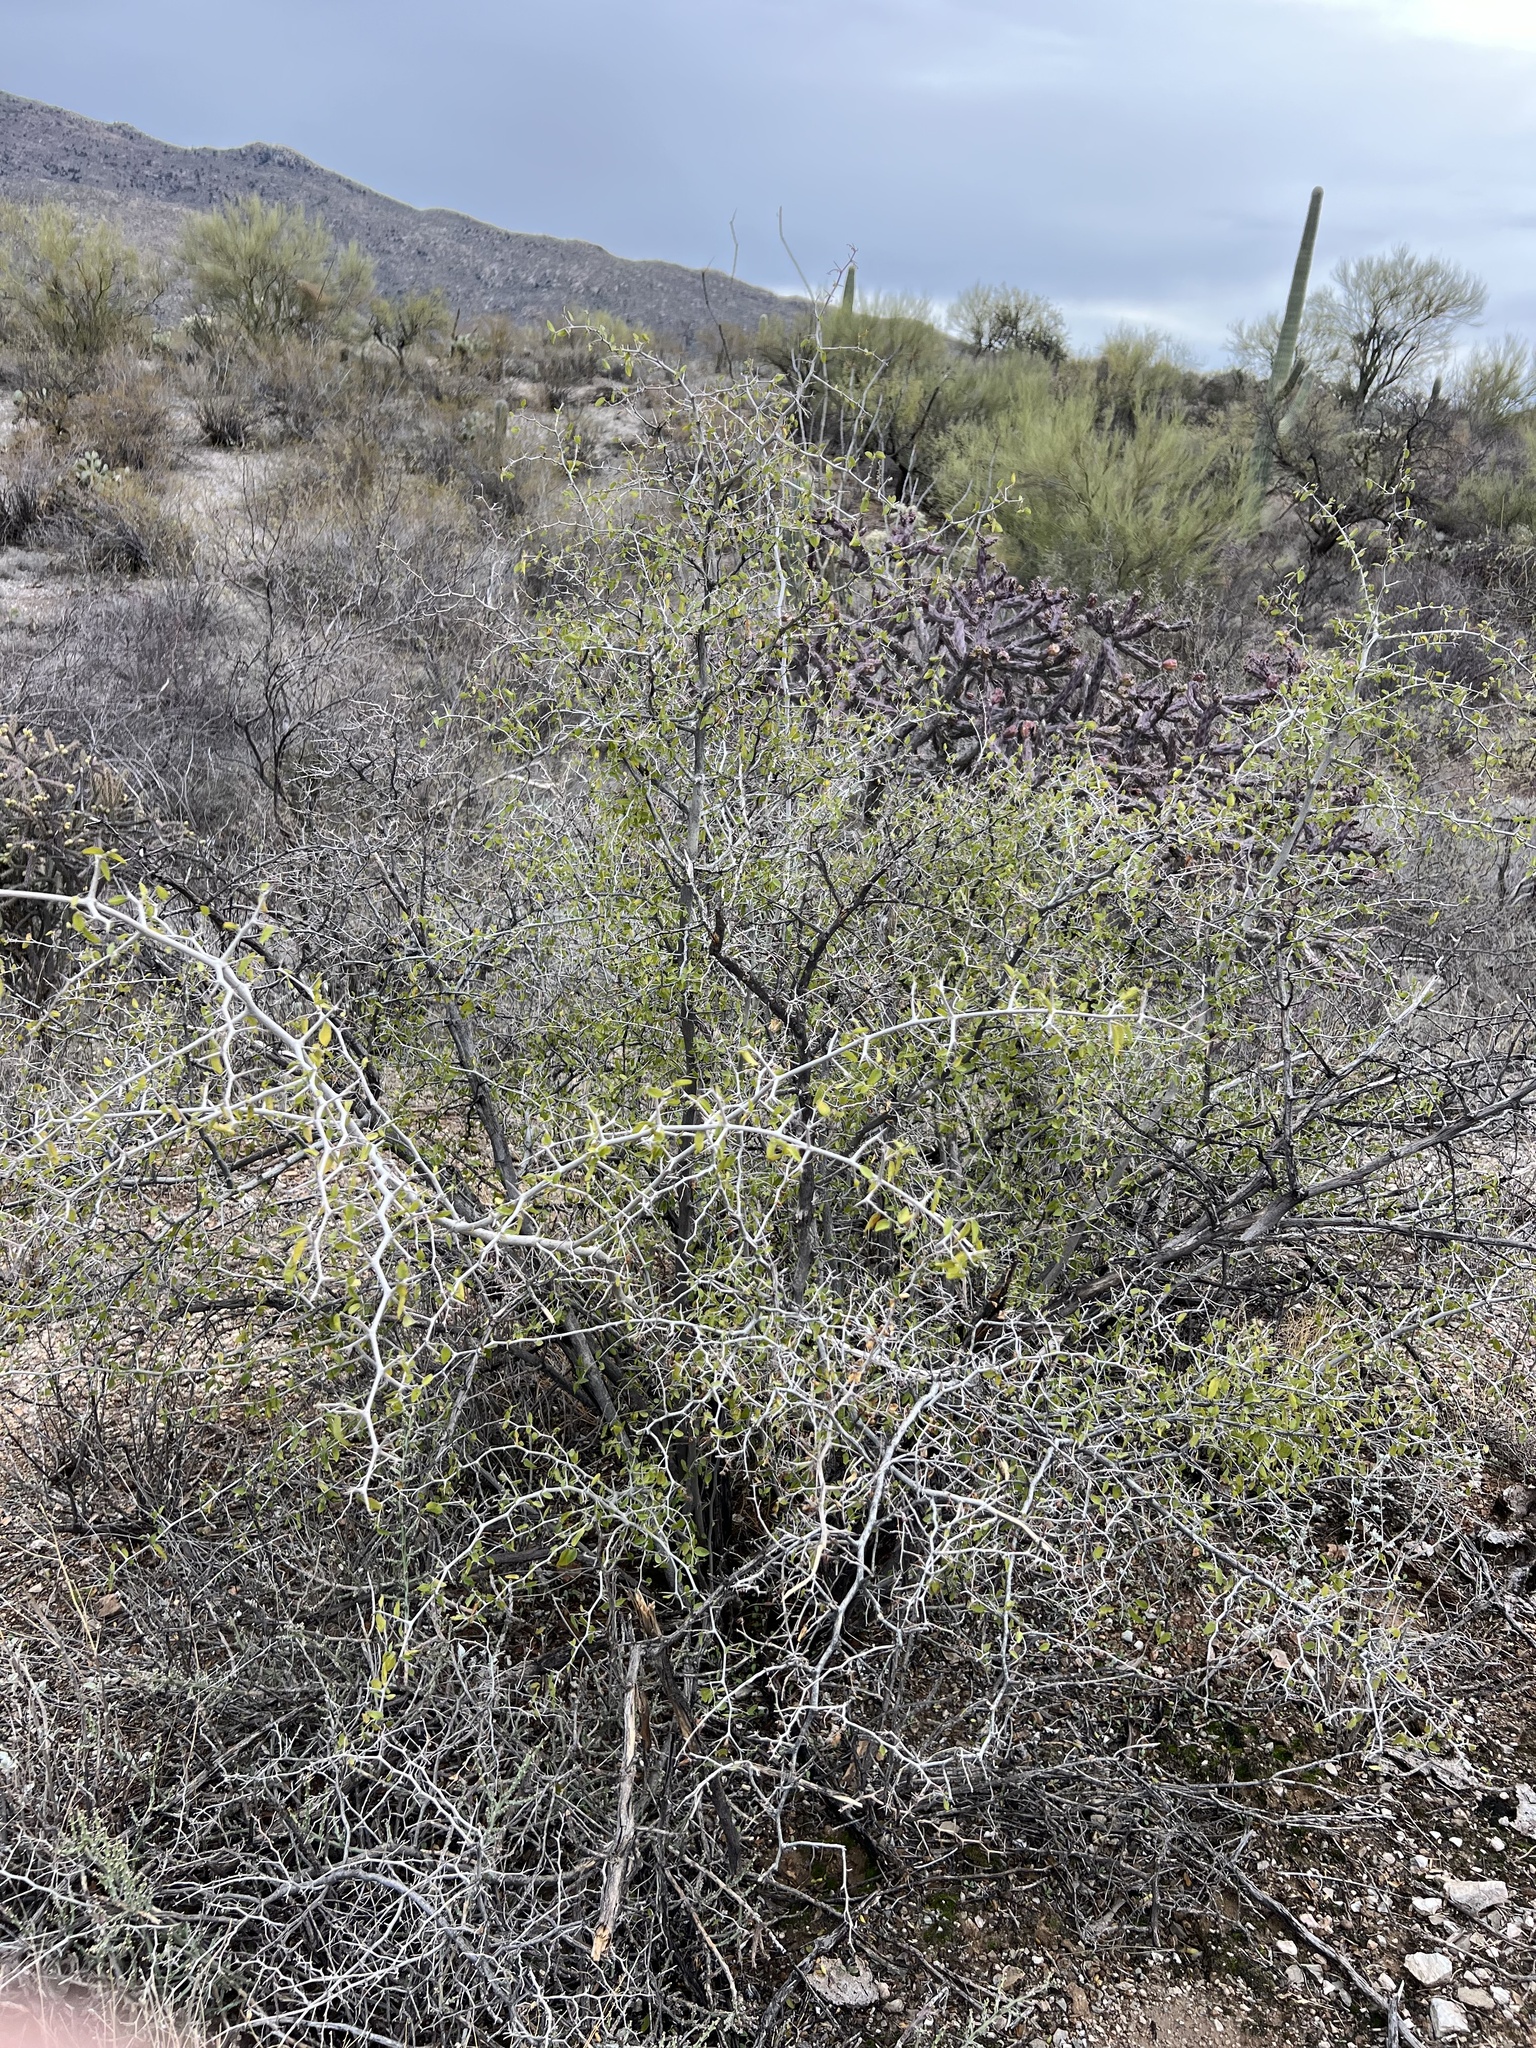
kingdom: Plantae
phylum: Tracheophyta
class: Magnoliopsida
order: Rosales
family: Cannabaceae
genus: Celtis
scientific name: Celtis pallida
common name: Desert hackberry
